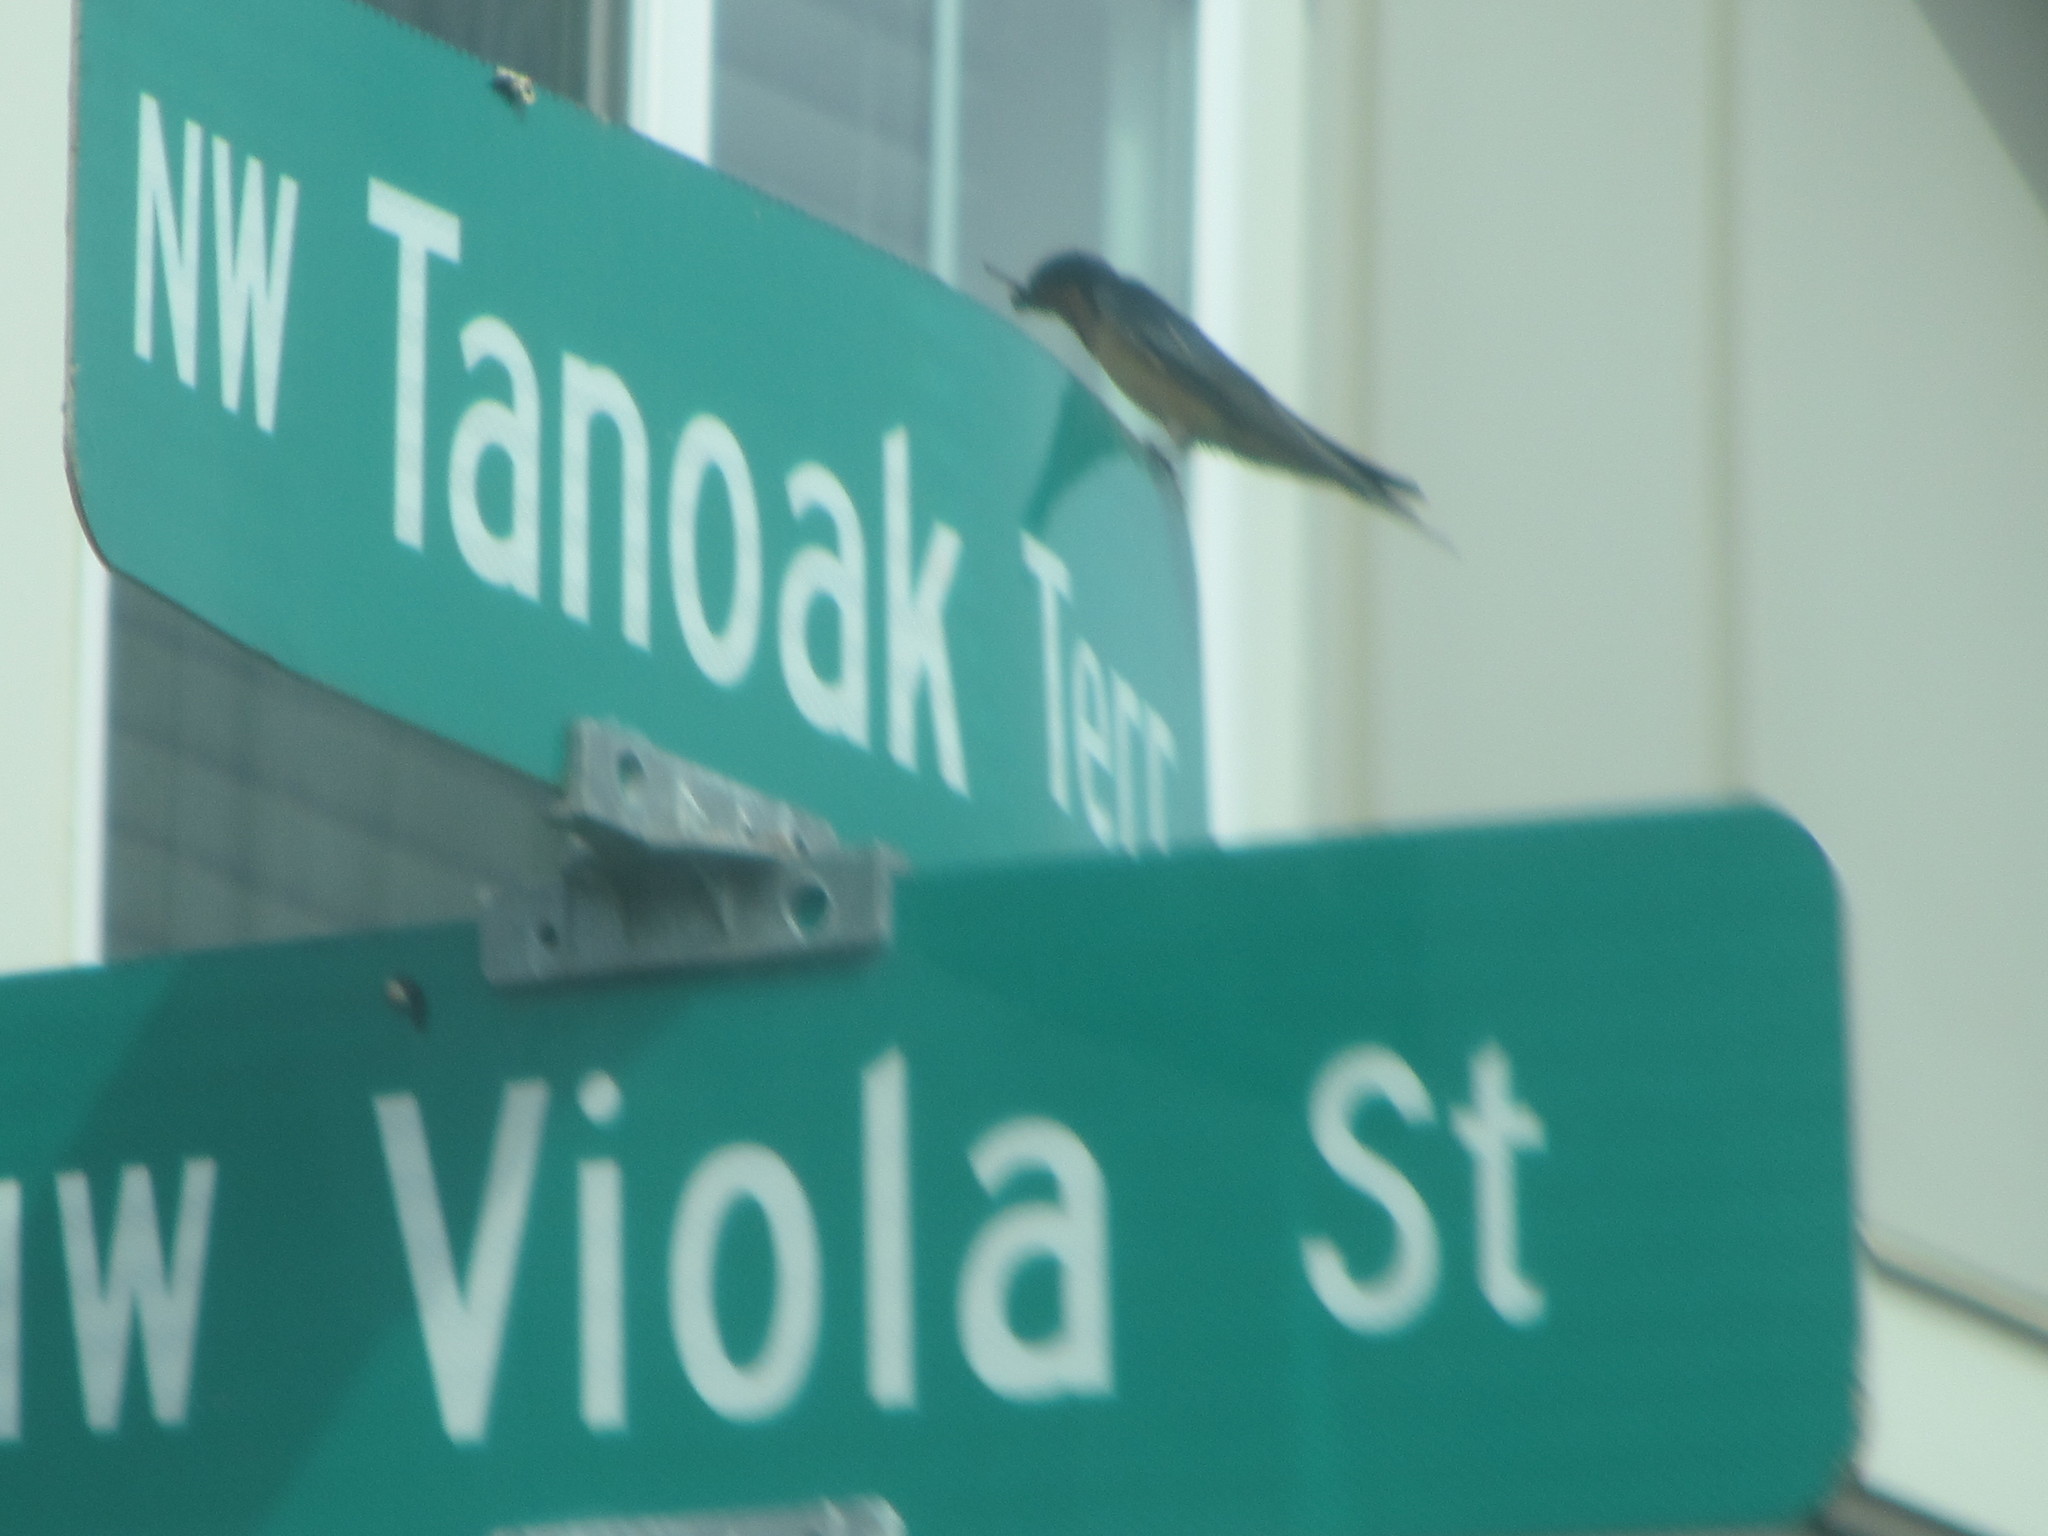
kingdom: Animalia
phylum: Chordata
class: Aves
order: Passeriformes
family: Hirundinidae
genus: Hirundo
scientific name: Hirundo rustica
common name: Barn swallow
